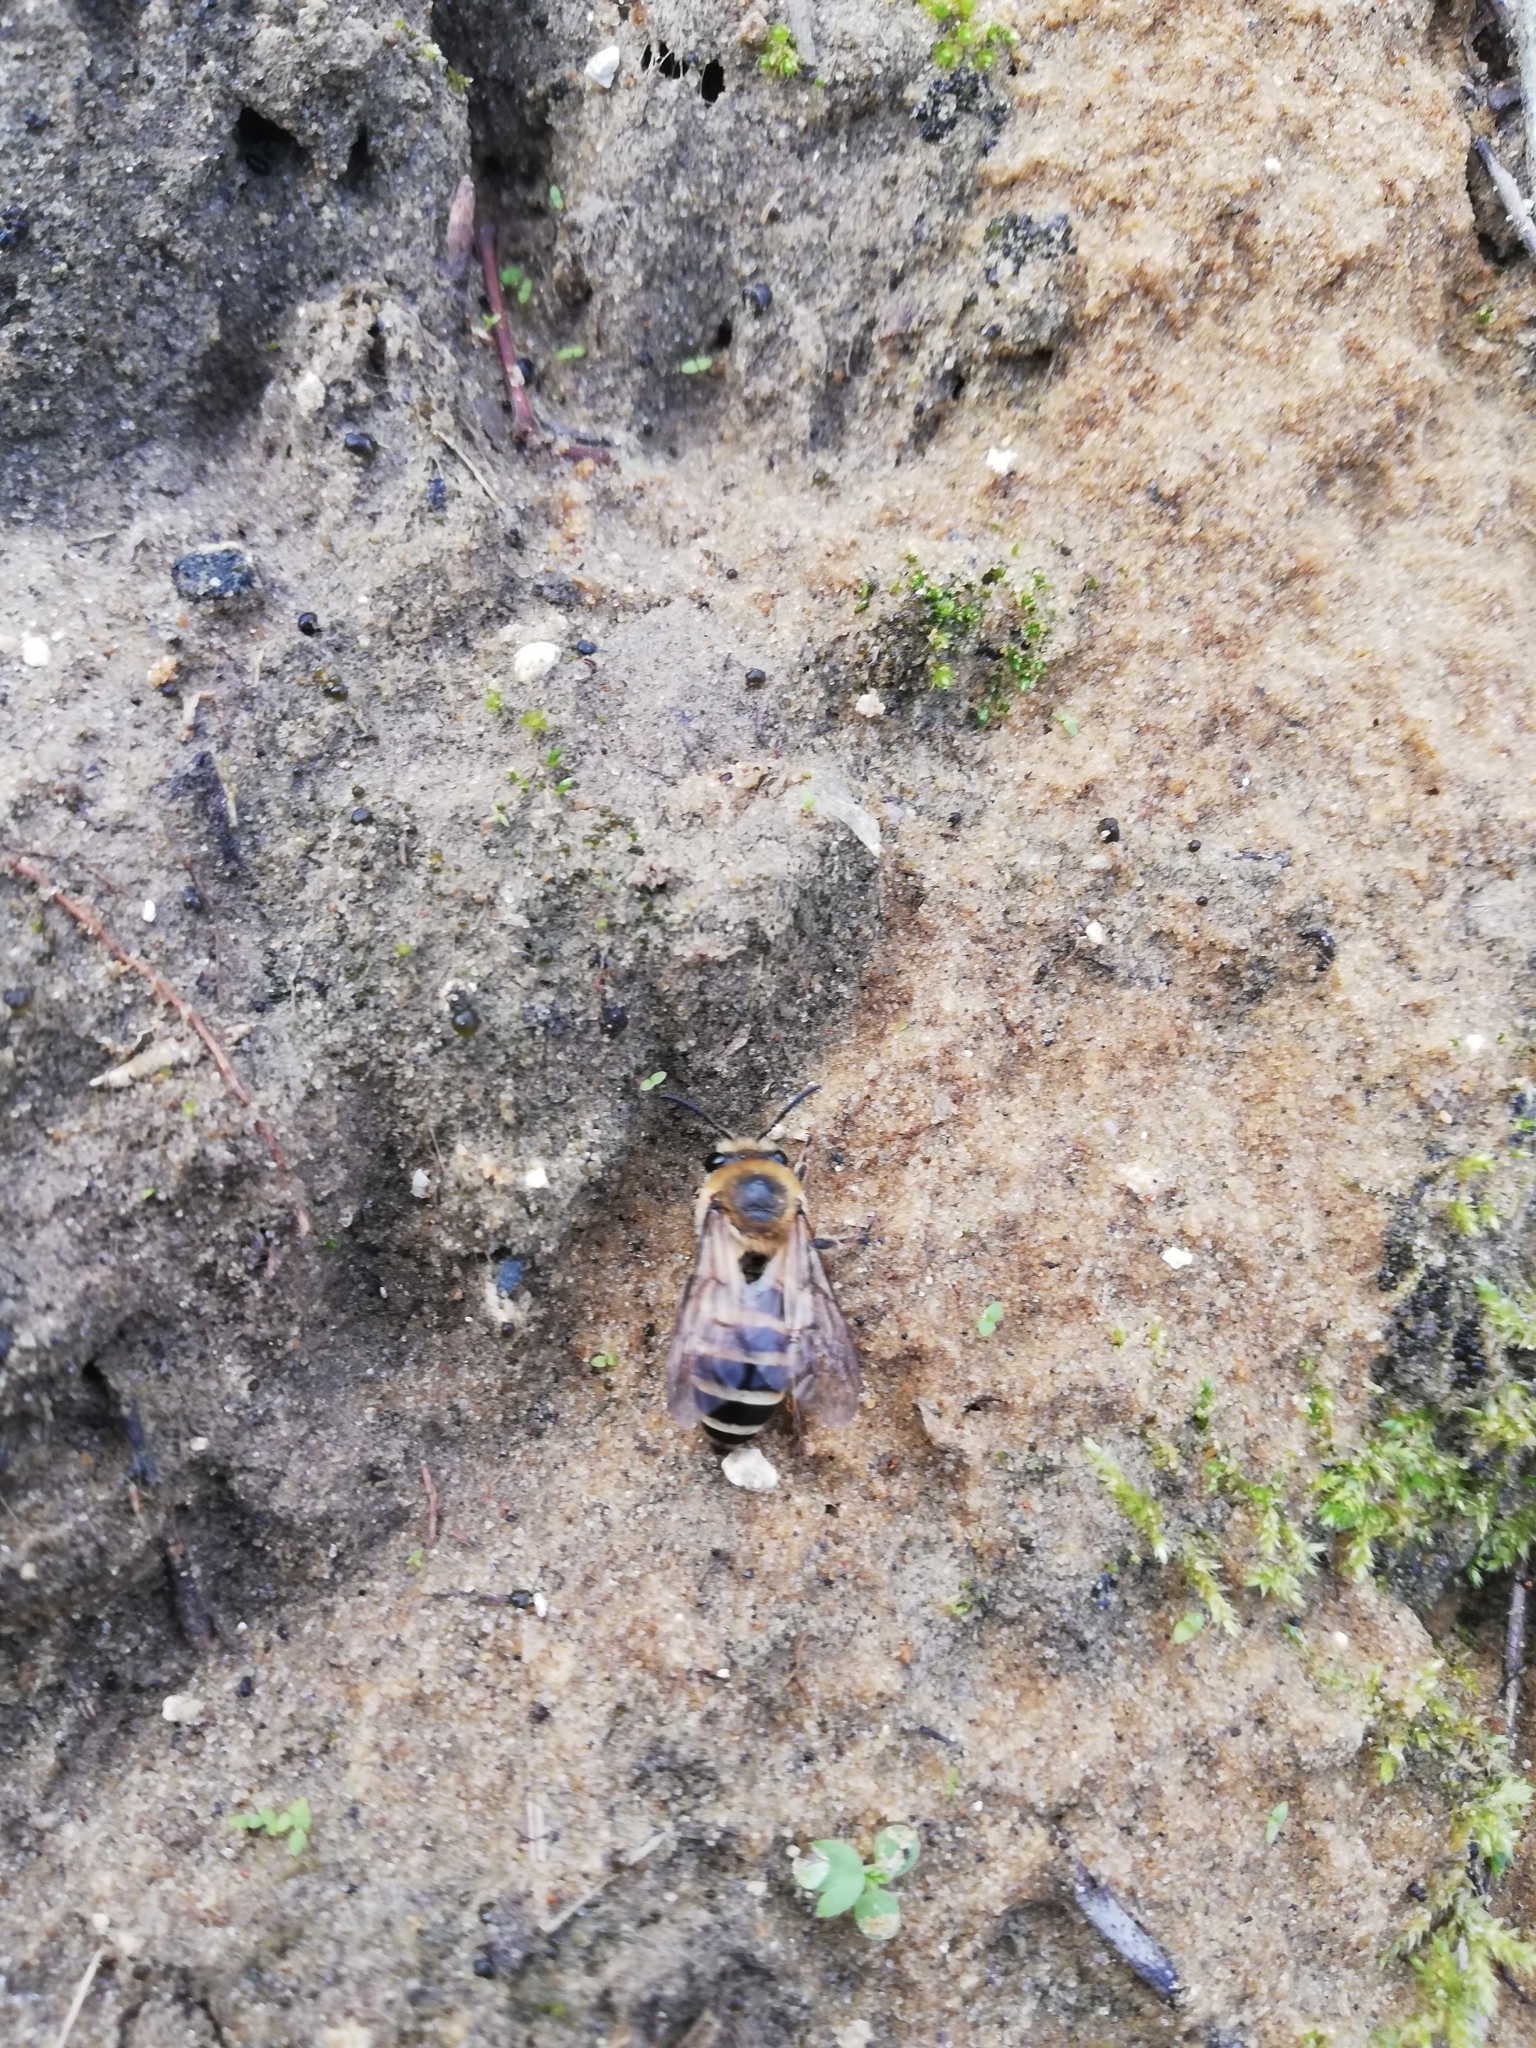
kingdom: Animalia
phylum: Arthropoda
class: Insecta
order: Hymenoptera
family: Colletidae
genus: Colletes
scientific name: Colletes hederae
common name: Ivy bee
